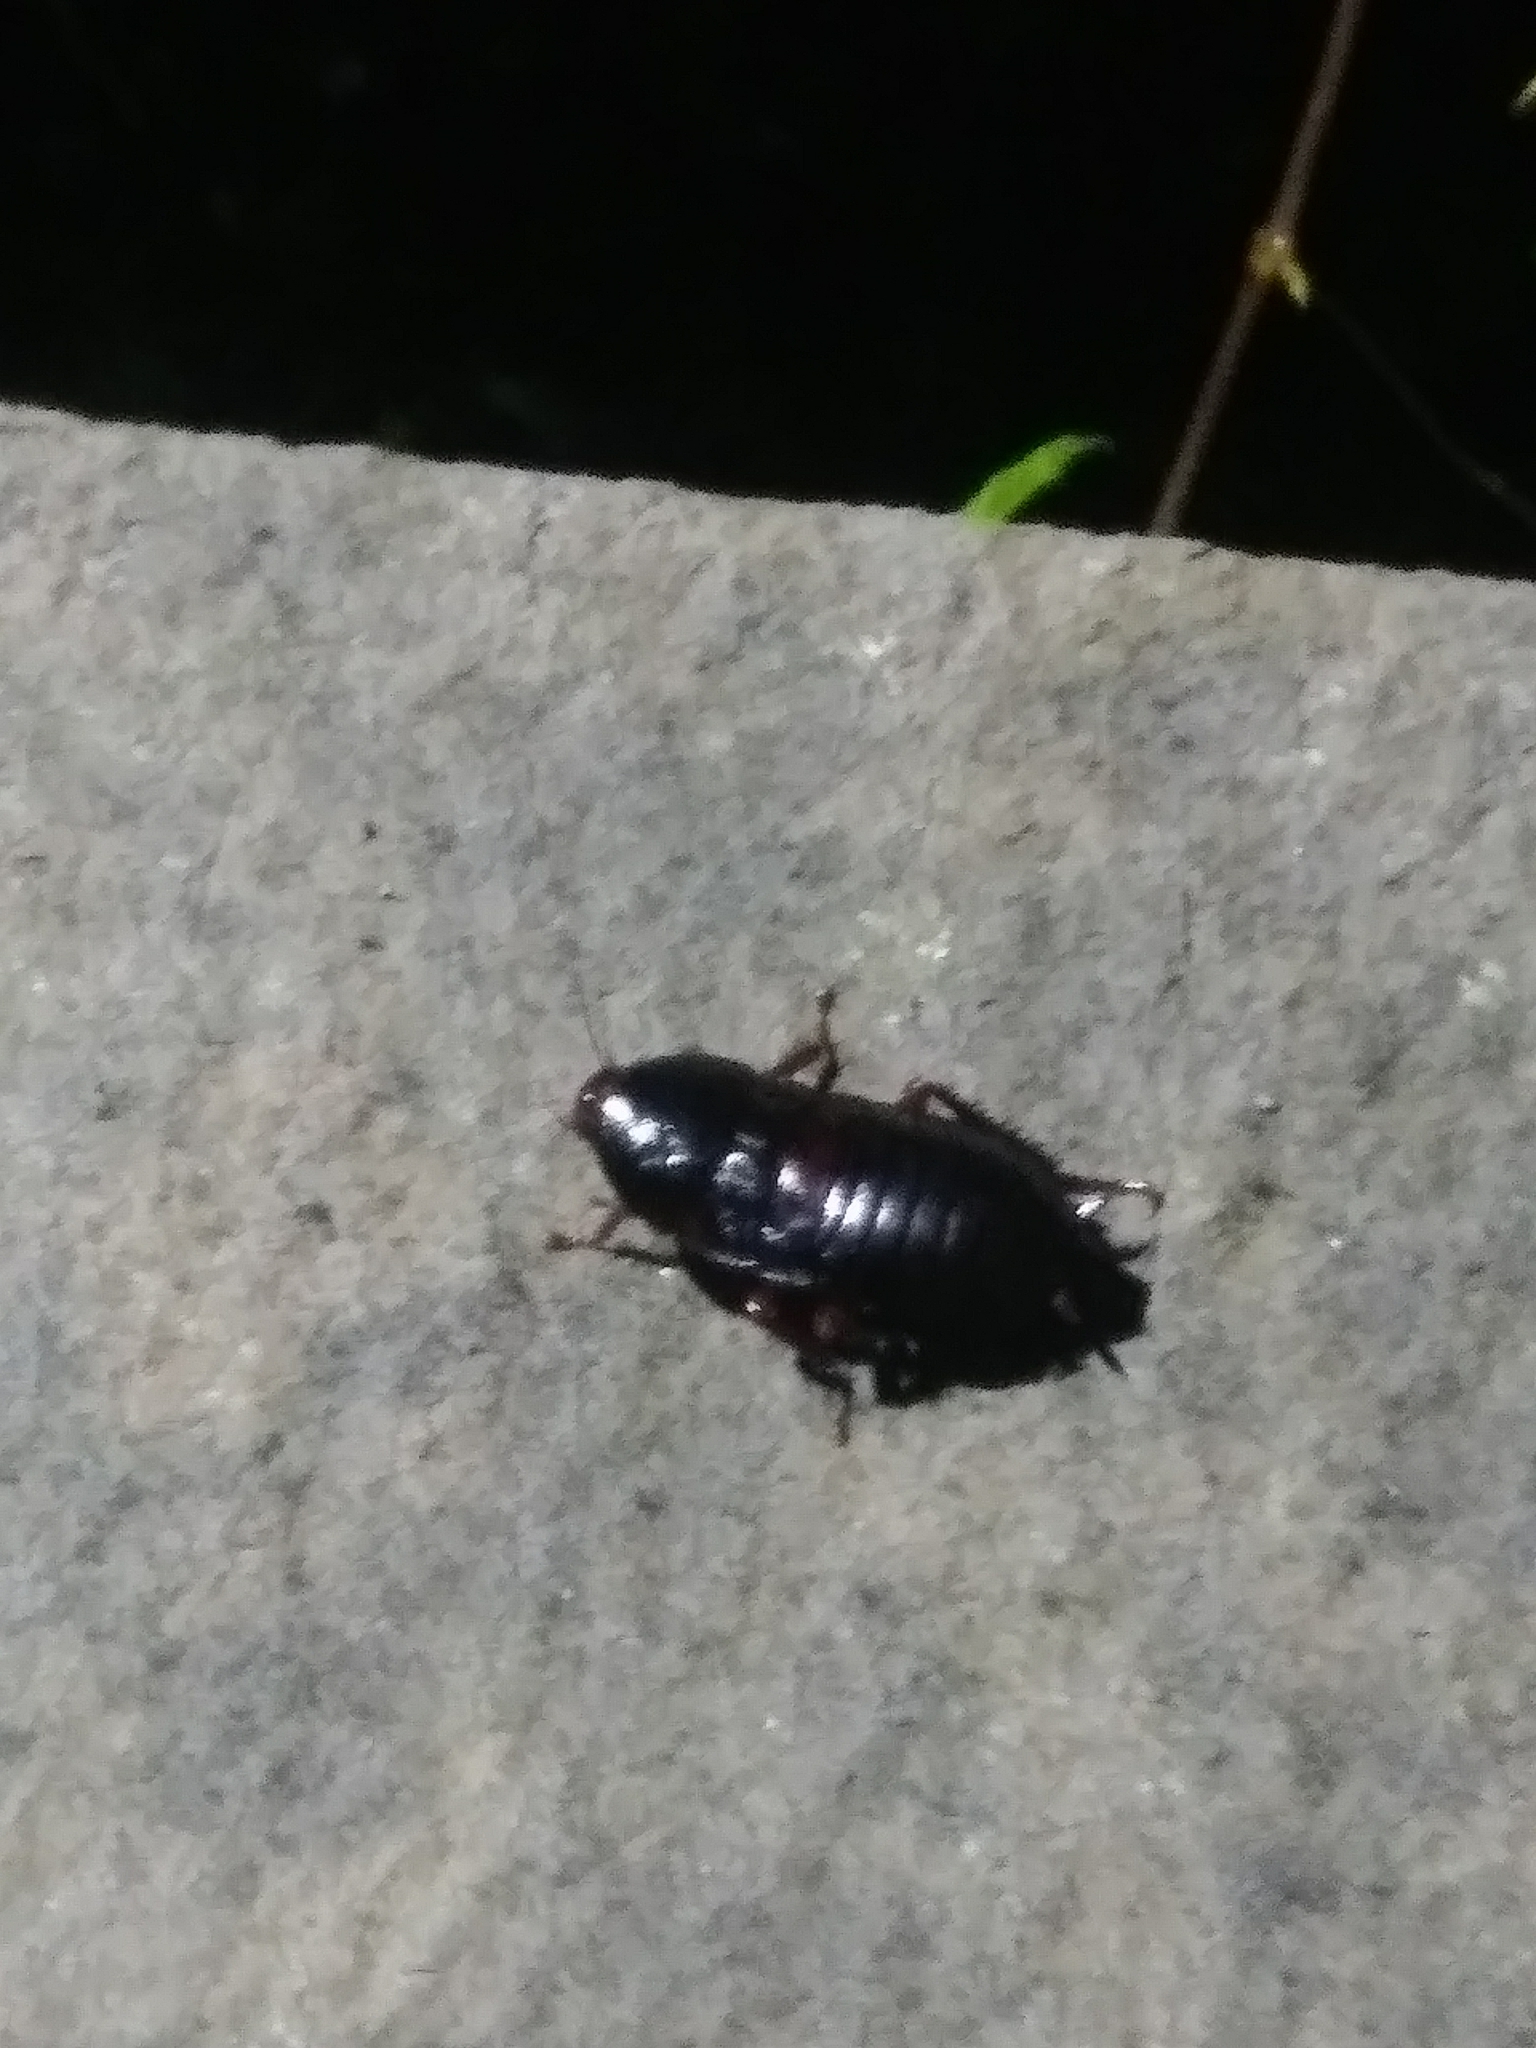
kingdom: Animalia
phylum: Arthropoda
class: Insecta
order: Blattodea
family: Blattidae
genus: Eurycotis
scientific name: Eurycotis floridana
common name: Florida cockroach
